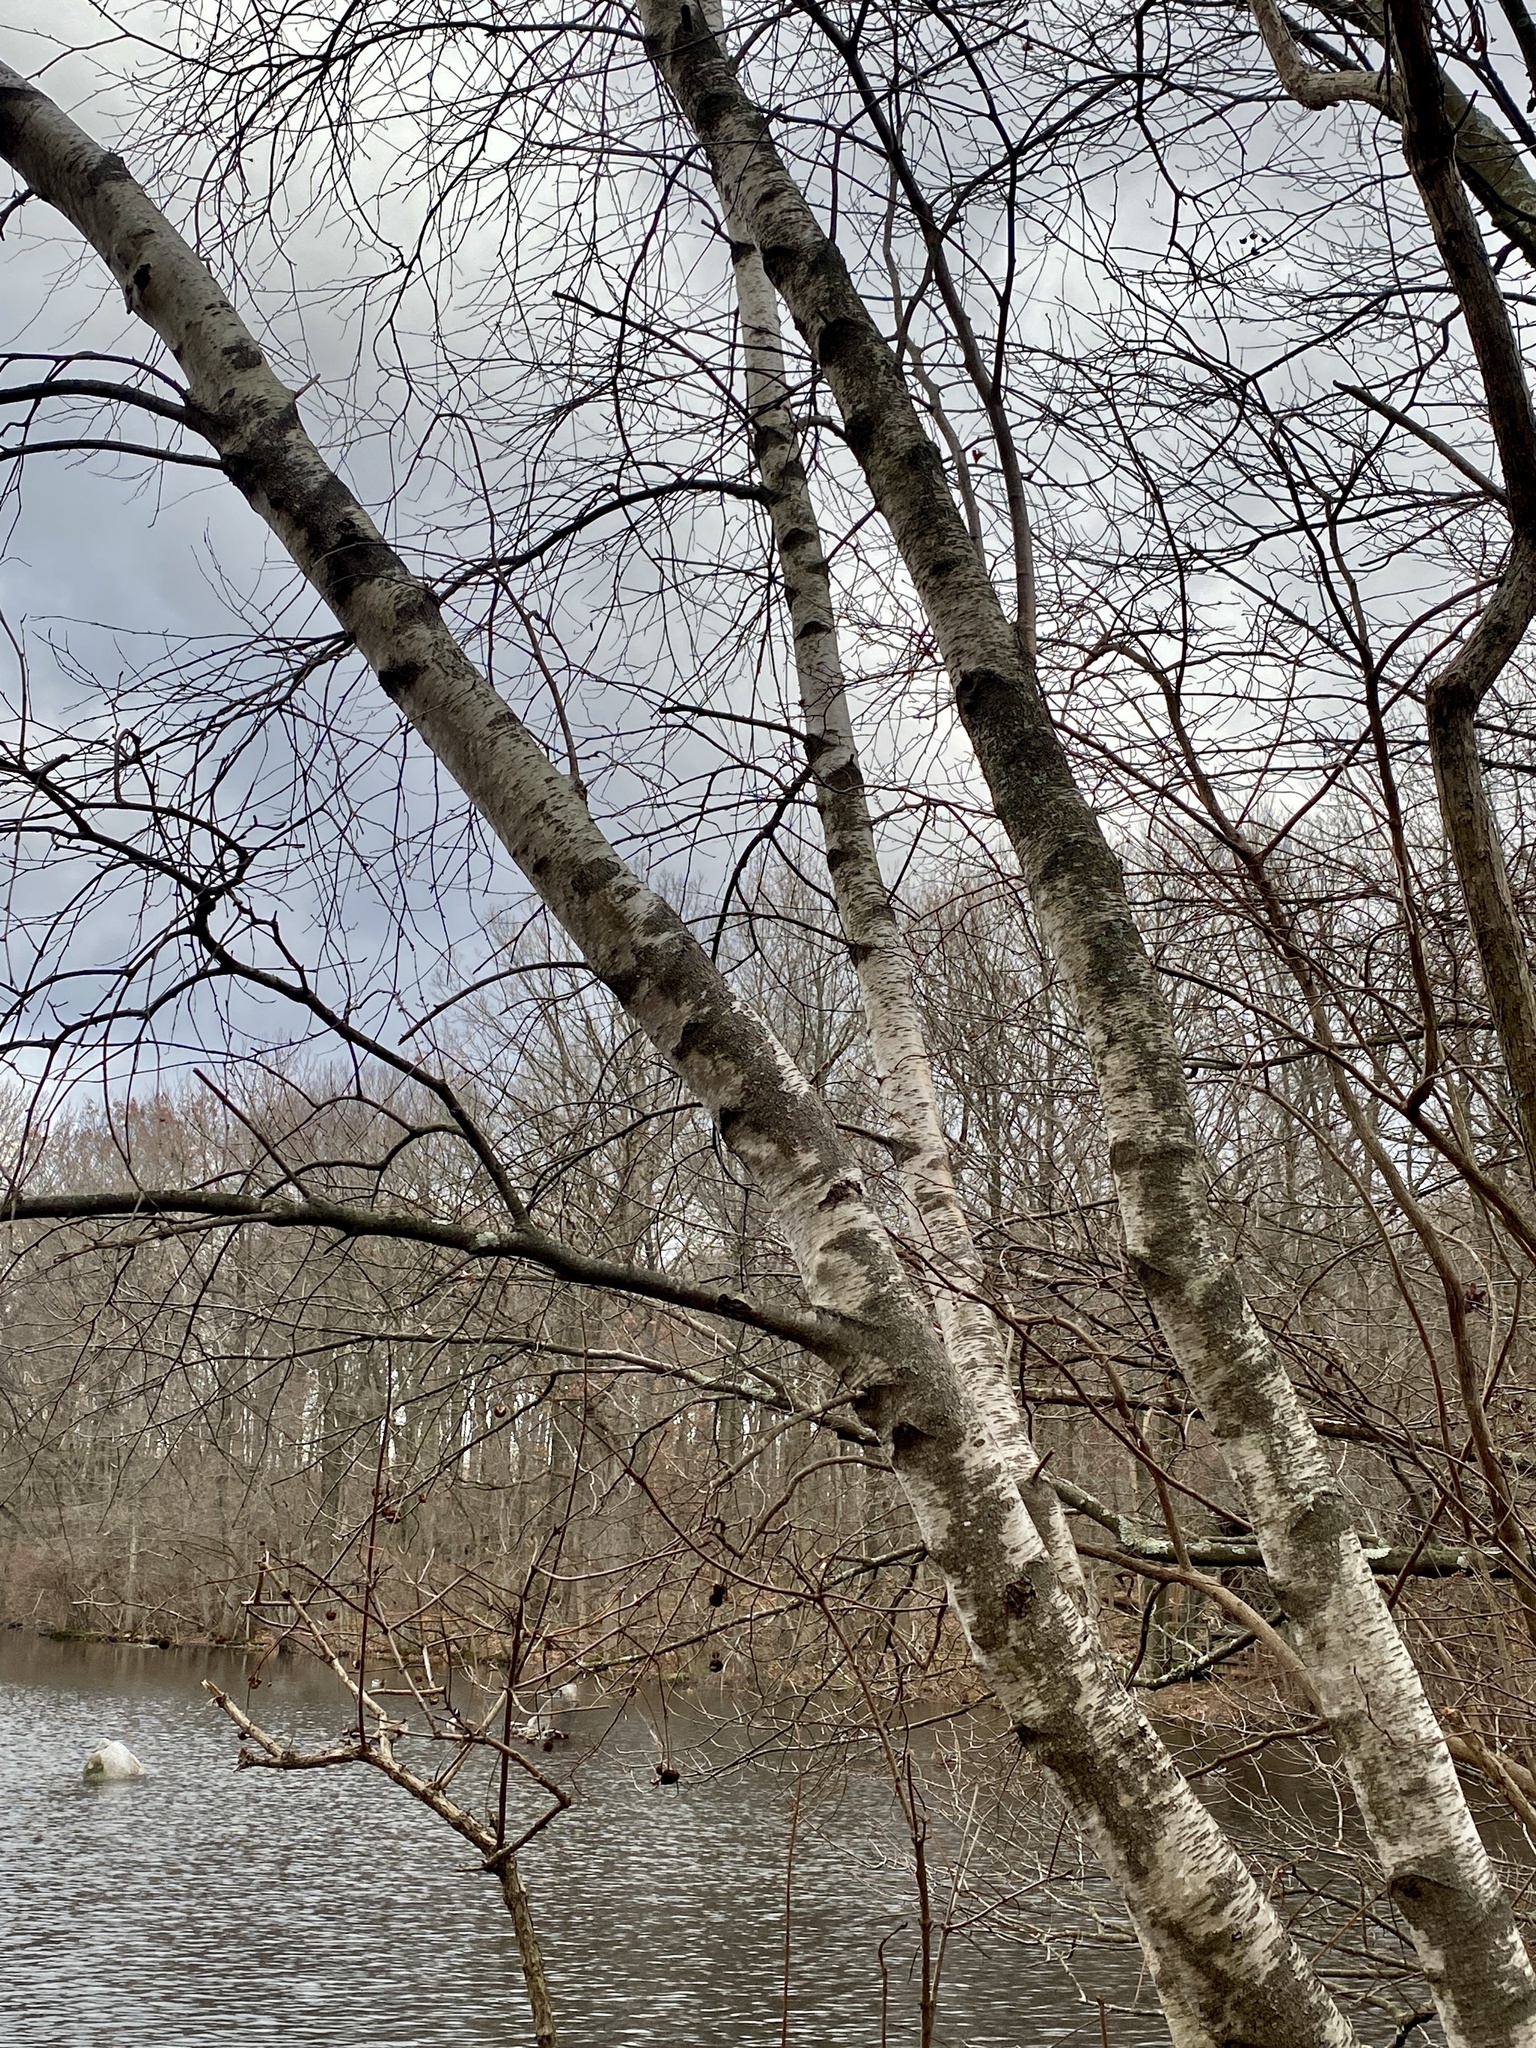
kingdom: Plantae
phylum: Tracheophyta
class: Magnoliopsida
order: Fagales
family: Betulaceae
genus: Betula
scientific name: Betula populifolia
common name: Fire birch
